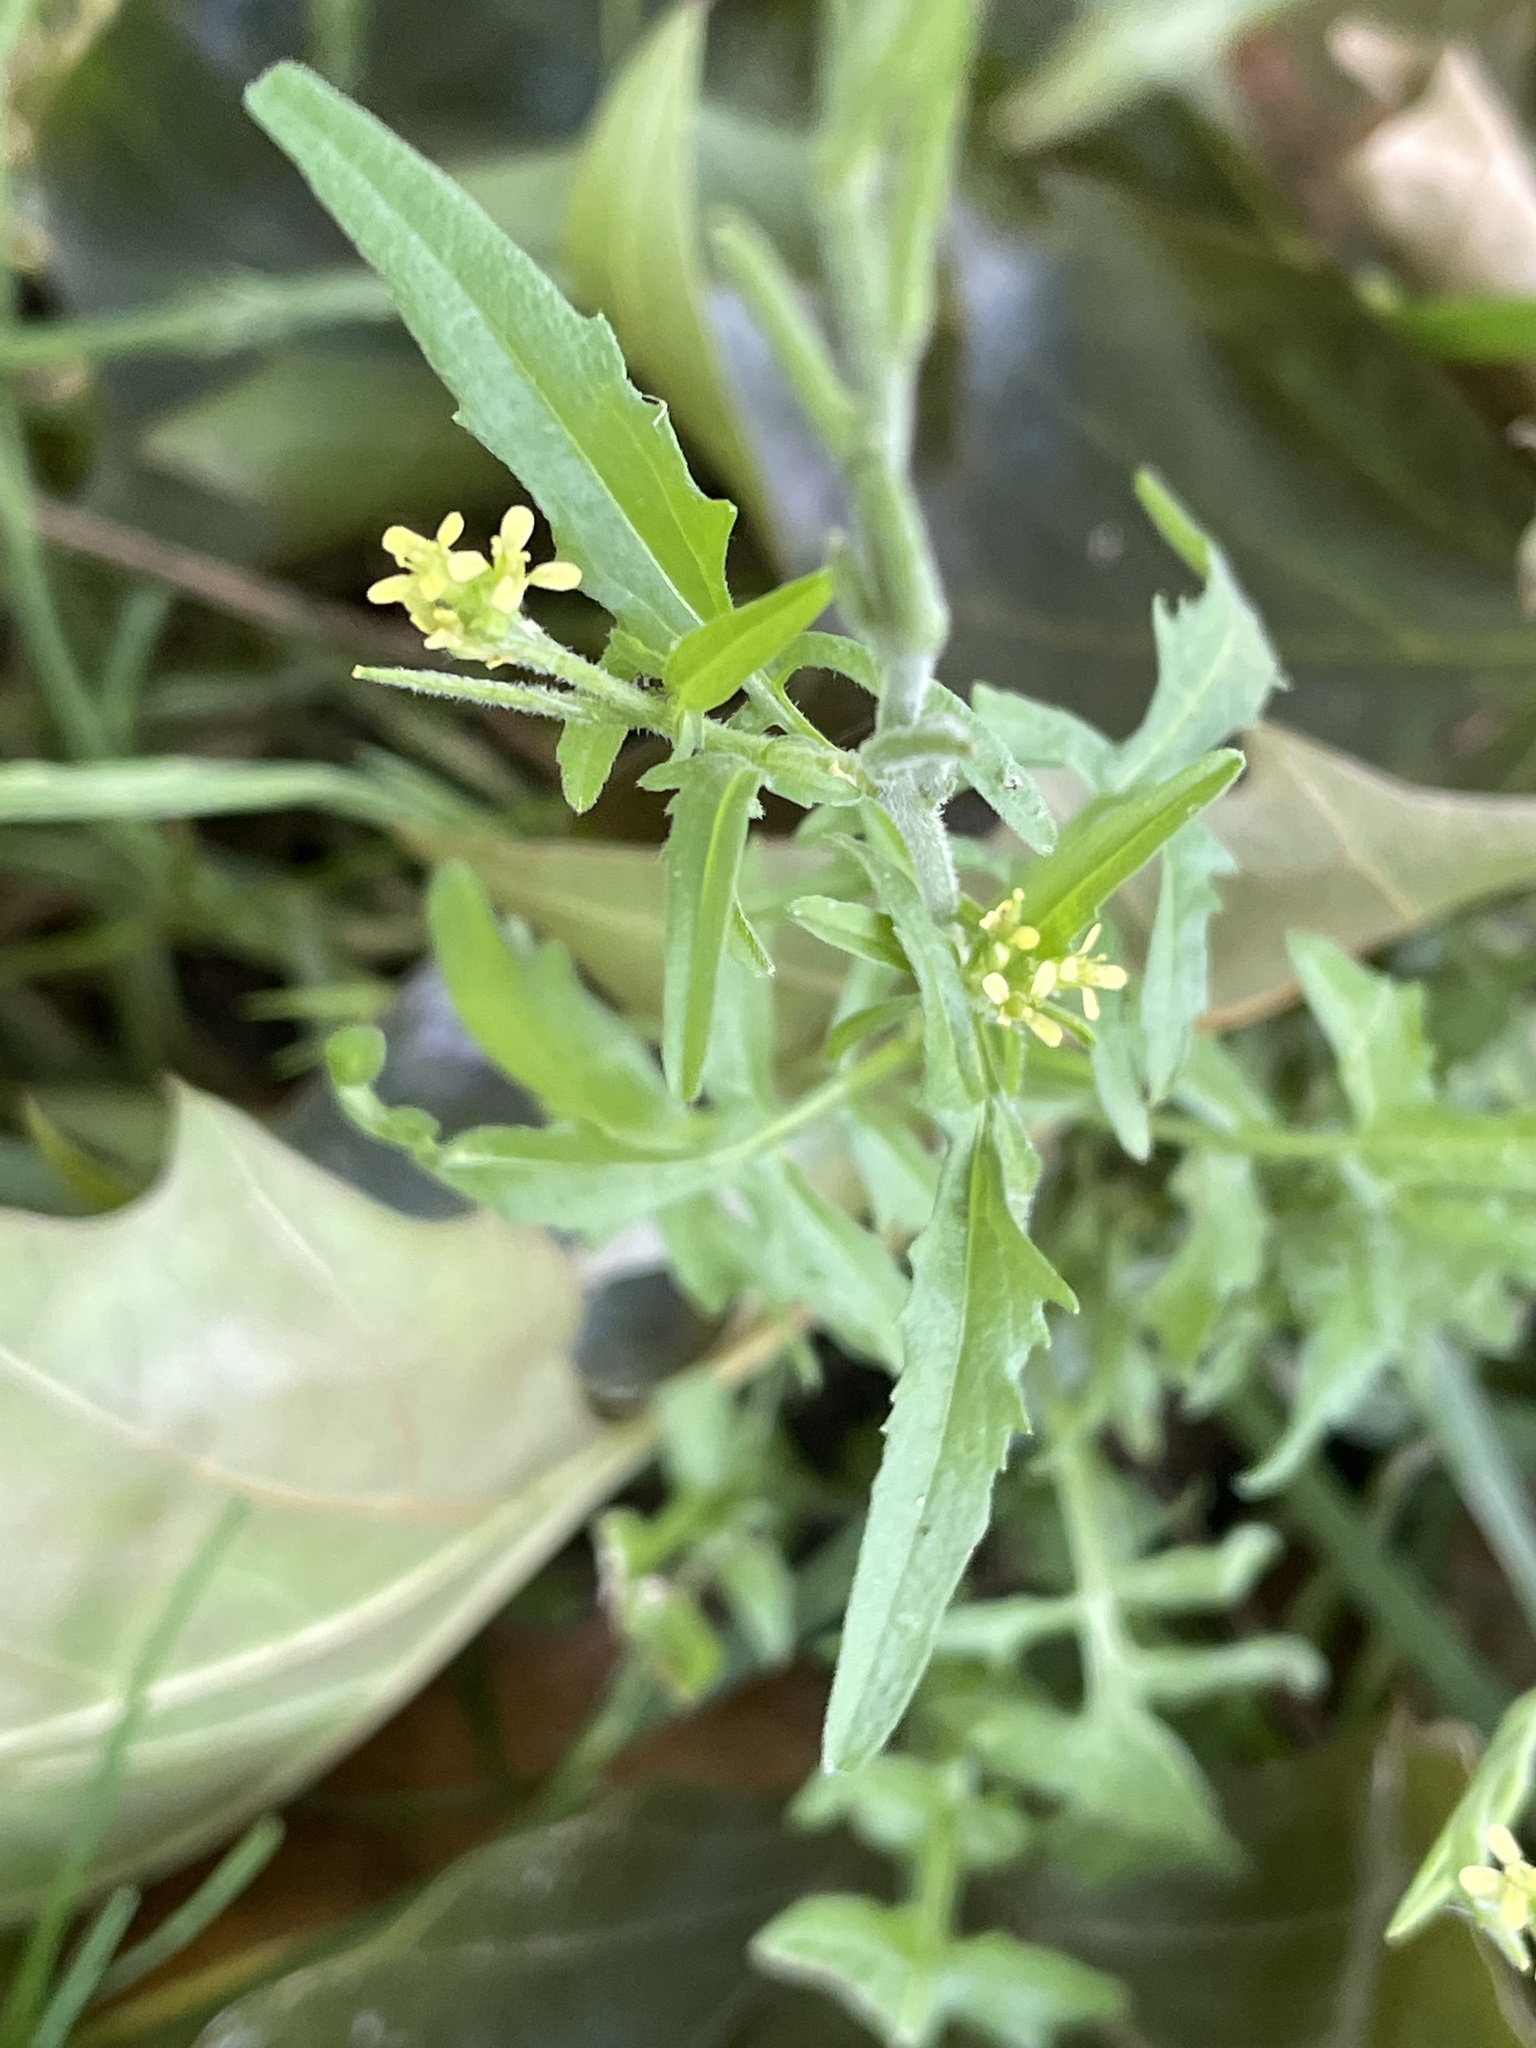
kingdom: Plantae
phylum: Tracheophyta
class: Magnoliopsida
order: Brassicales
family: Brassicaceae
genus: Sisymbrium
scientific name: Sisymbrium officinale
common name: Hedge mustard
